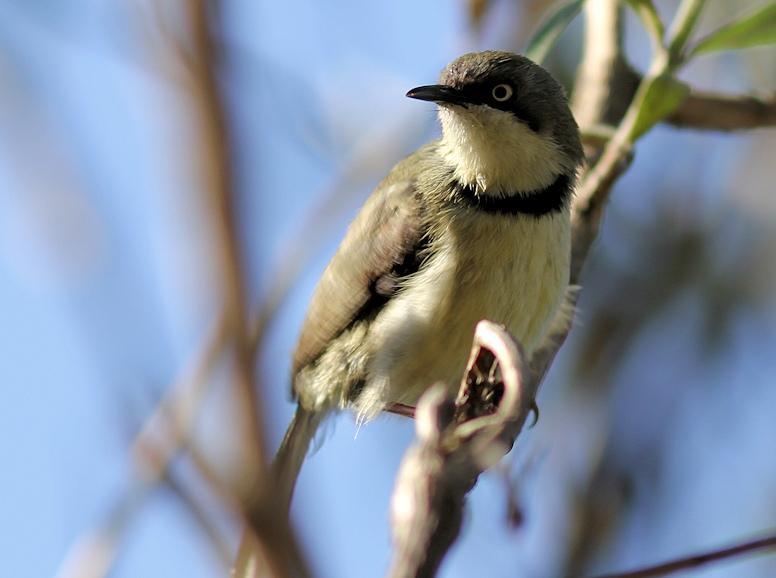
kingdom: Animalia
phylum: Chordata
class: Aves
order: Passeriformes
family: Cisticolidae
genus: Apalis
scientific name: Apalis thoracica
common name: Bar-throated apalis
